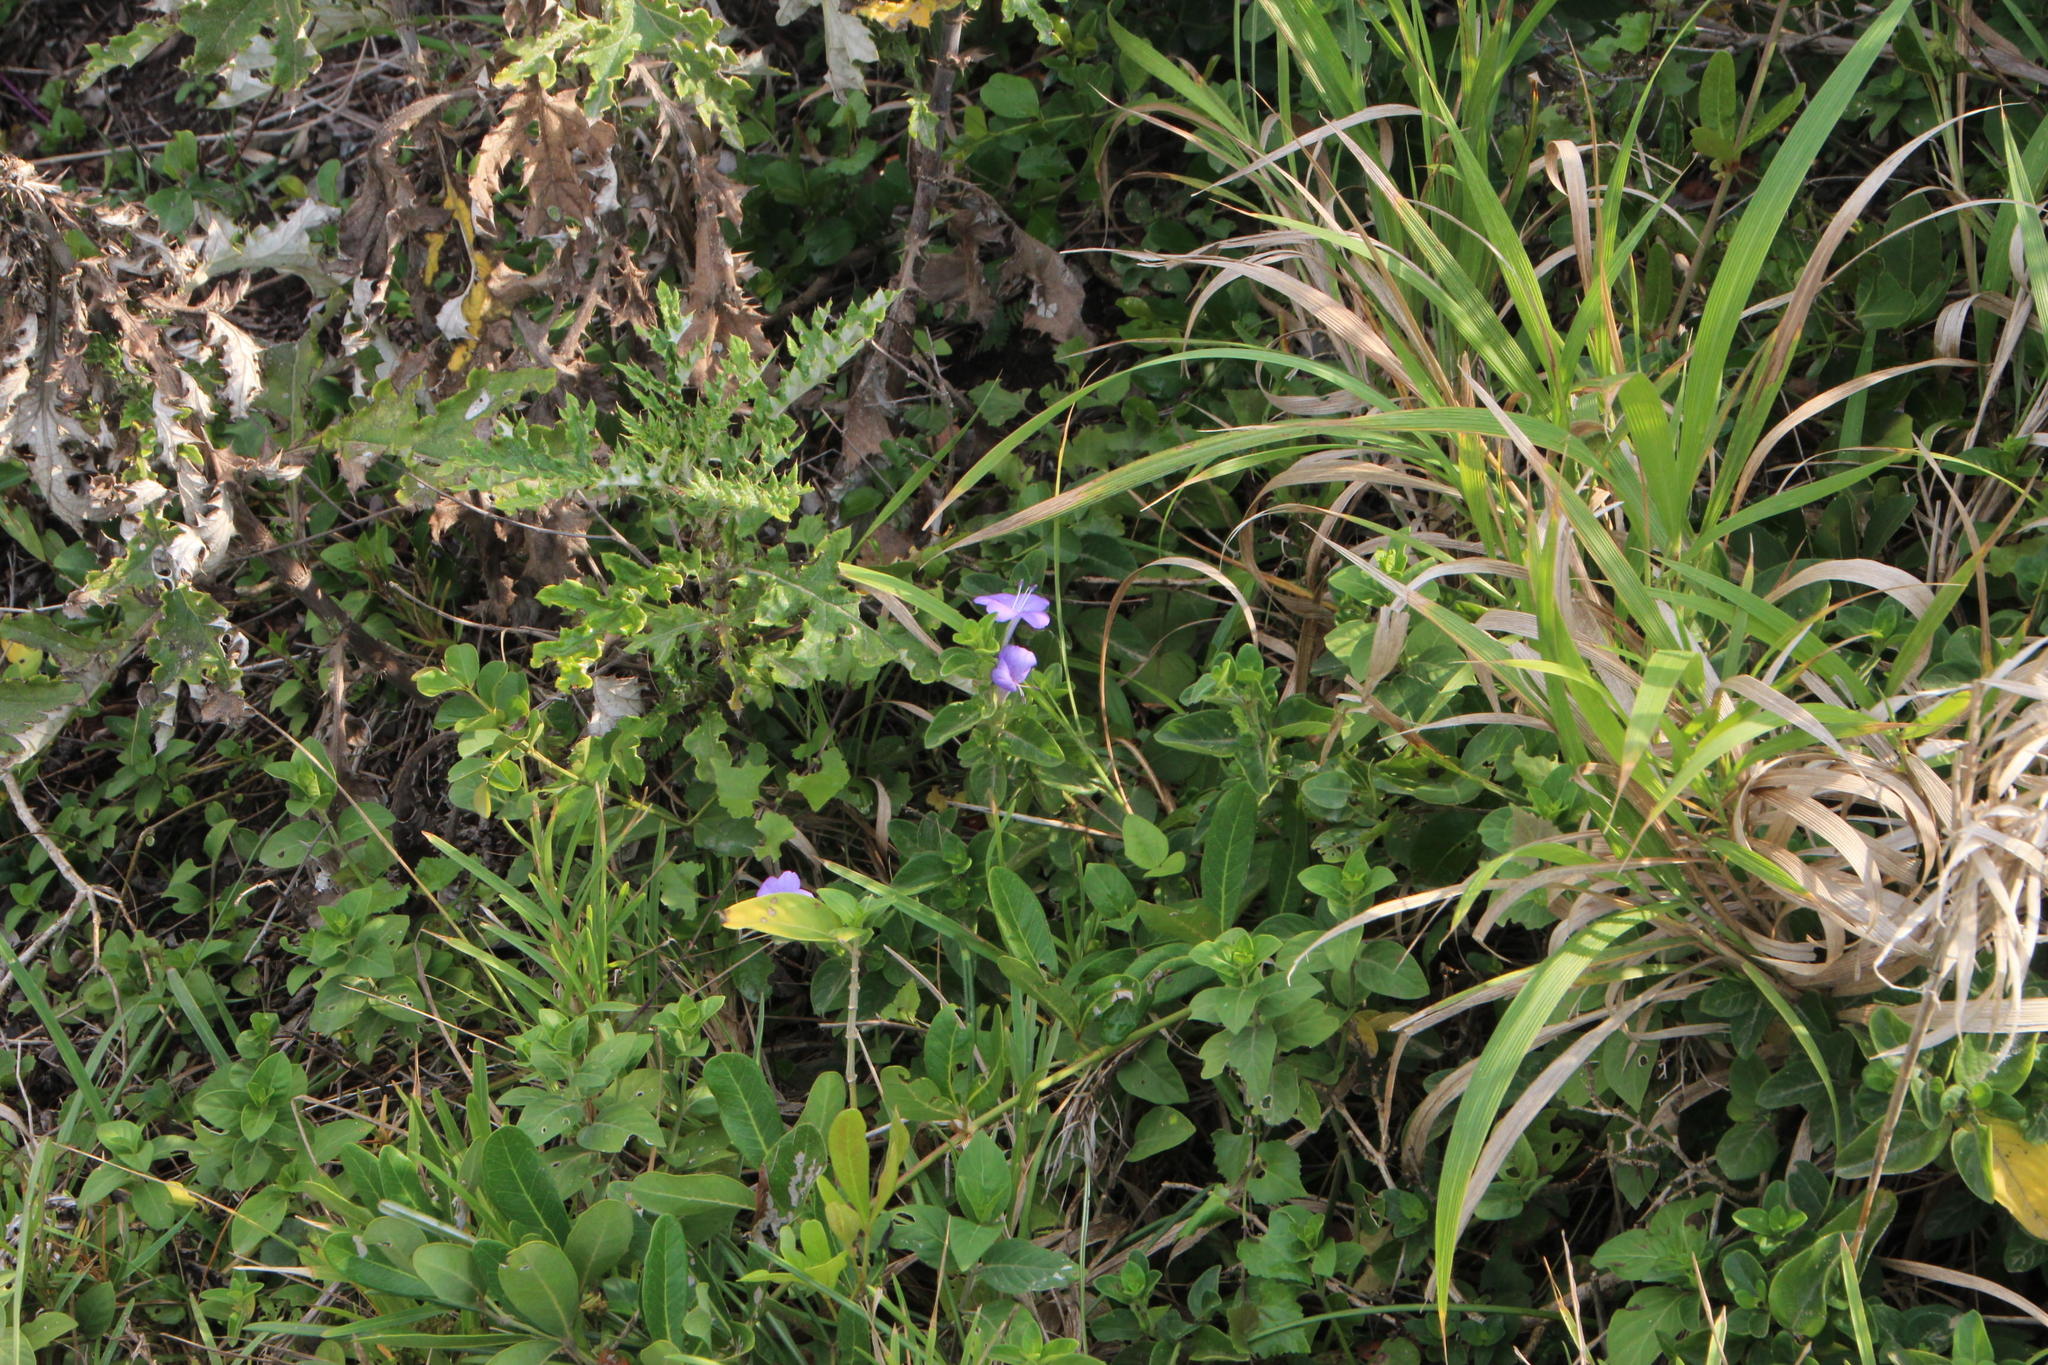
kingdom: Plantae
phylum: Tracheophyta
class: Magnoliopsida
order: Lamiales
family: Acanthaceae
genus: Barleria
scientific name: Barleria obtusa
